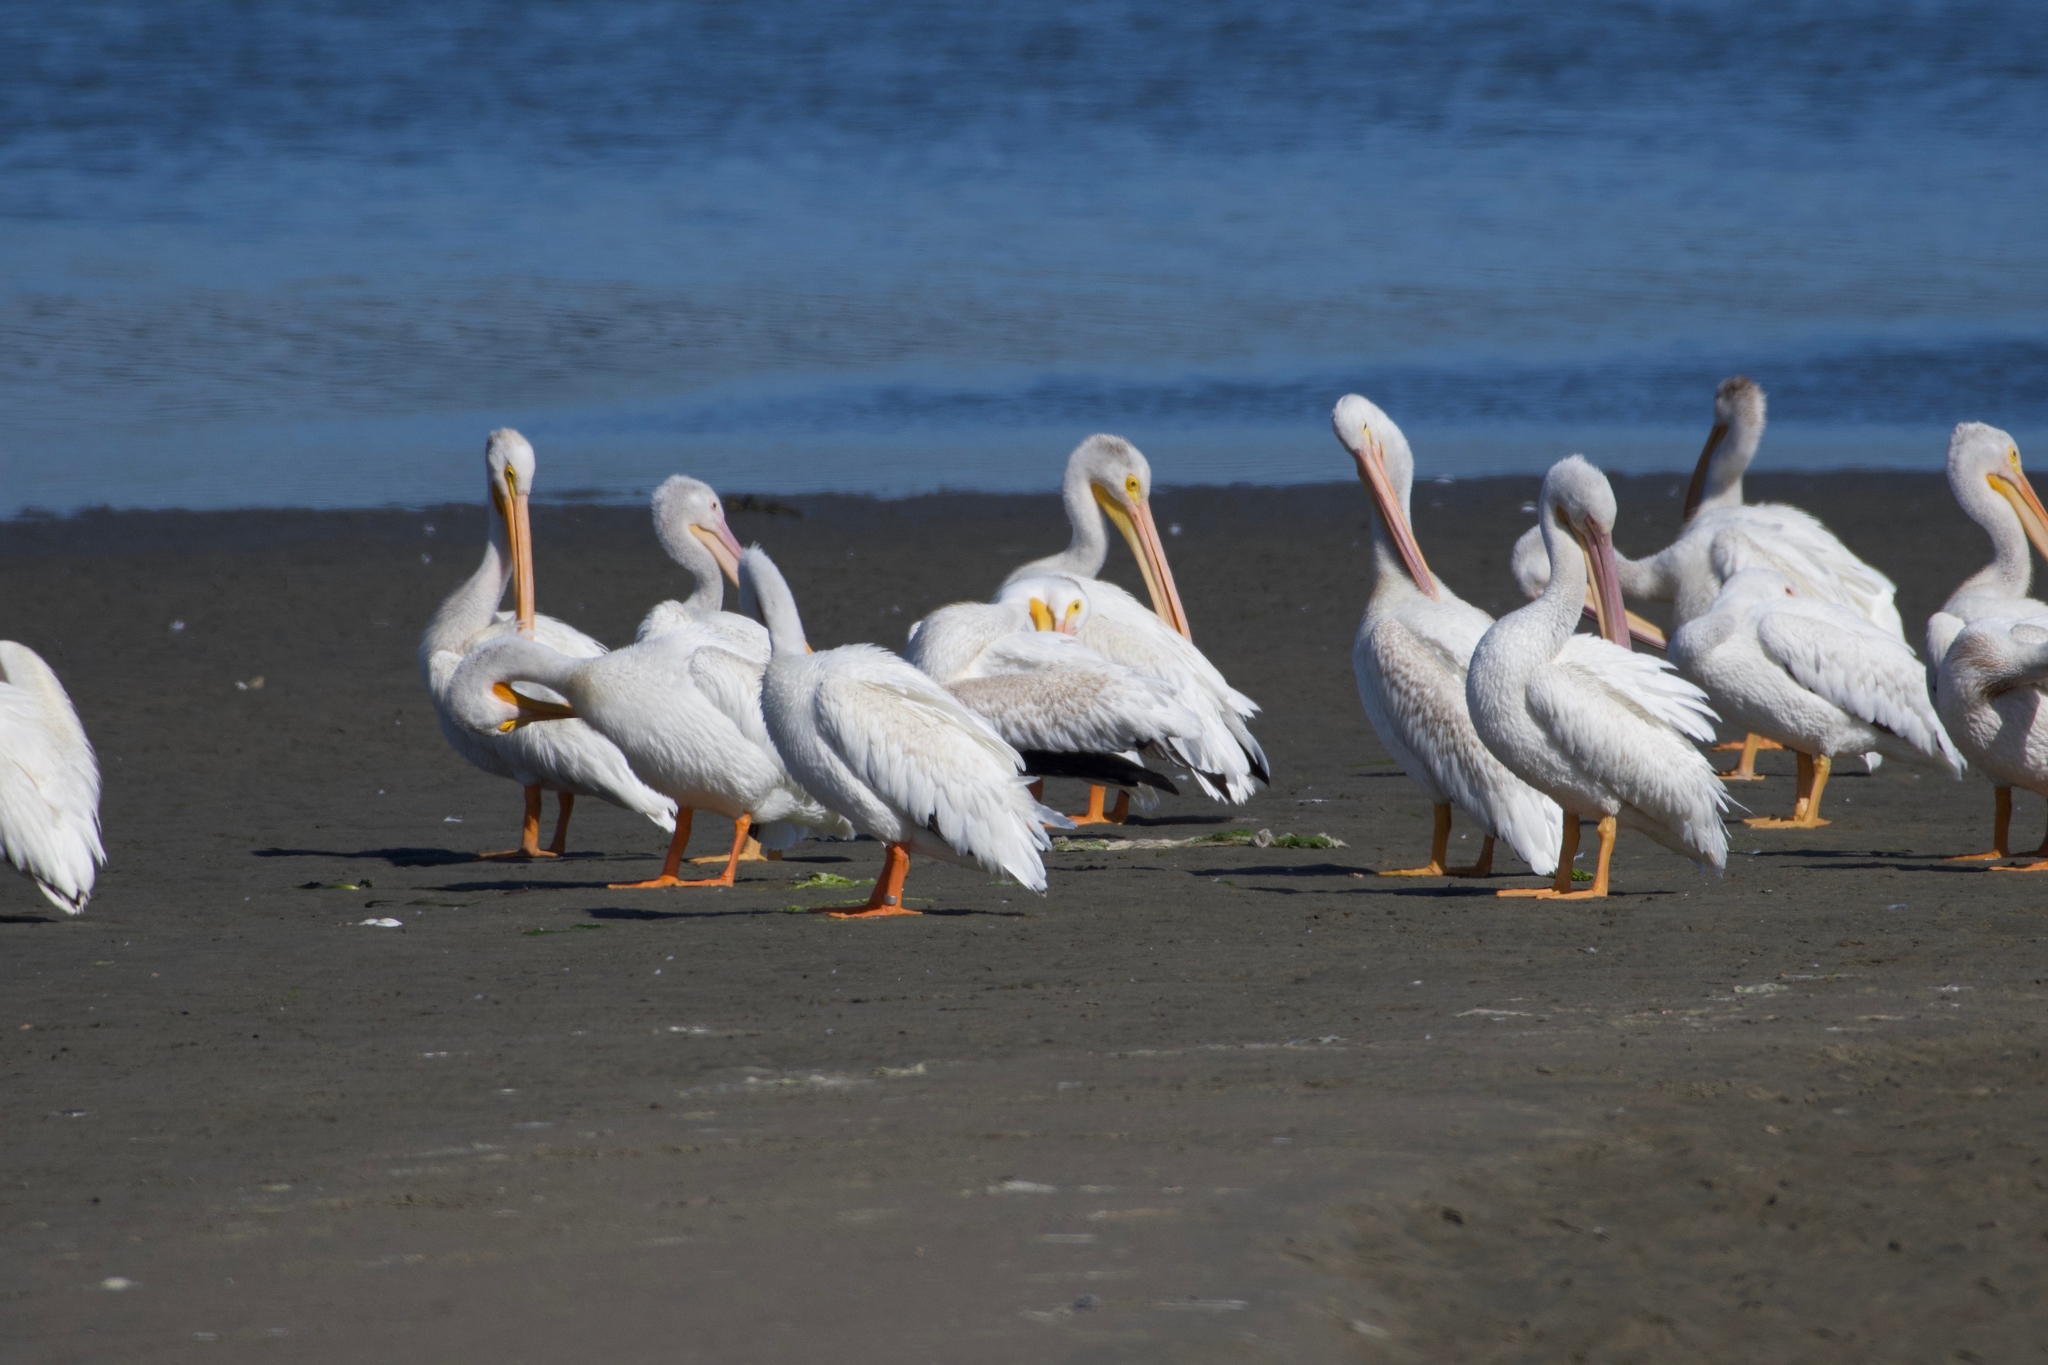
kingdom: Animalia
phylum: Chordata
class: Aves
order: Pelecaniformes
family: Pelecanidae
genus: Pelecanus
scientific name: Pelecanus erythrorhynchos
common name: American white pelican
